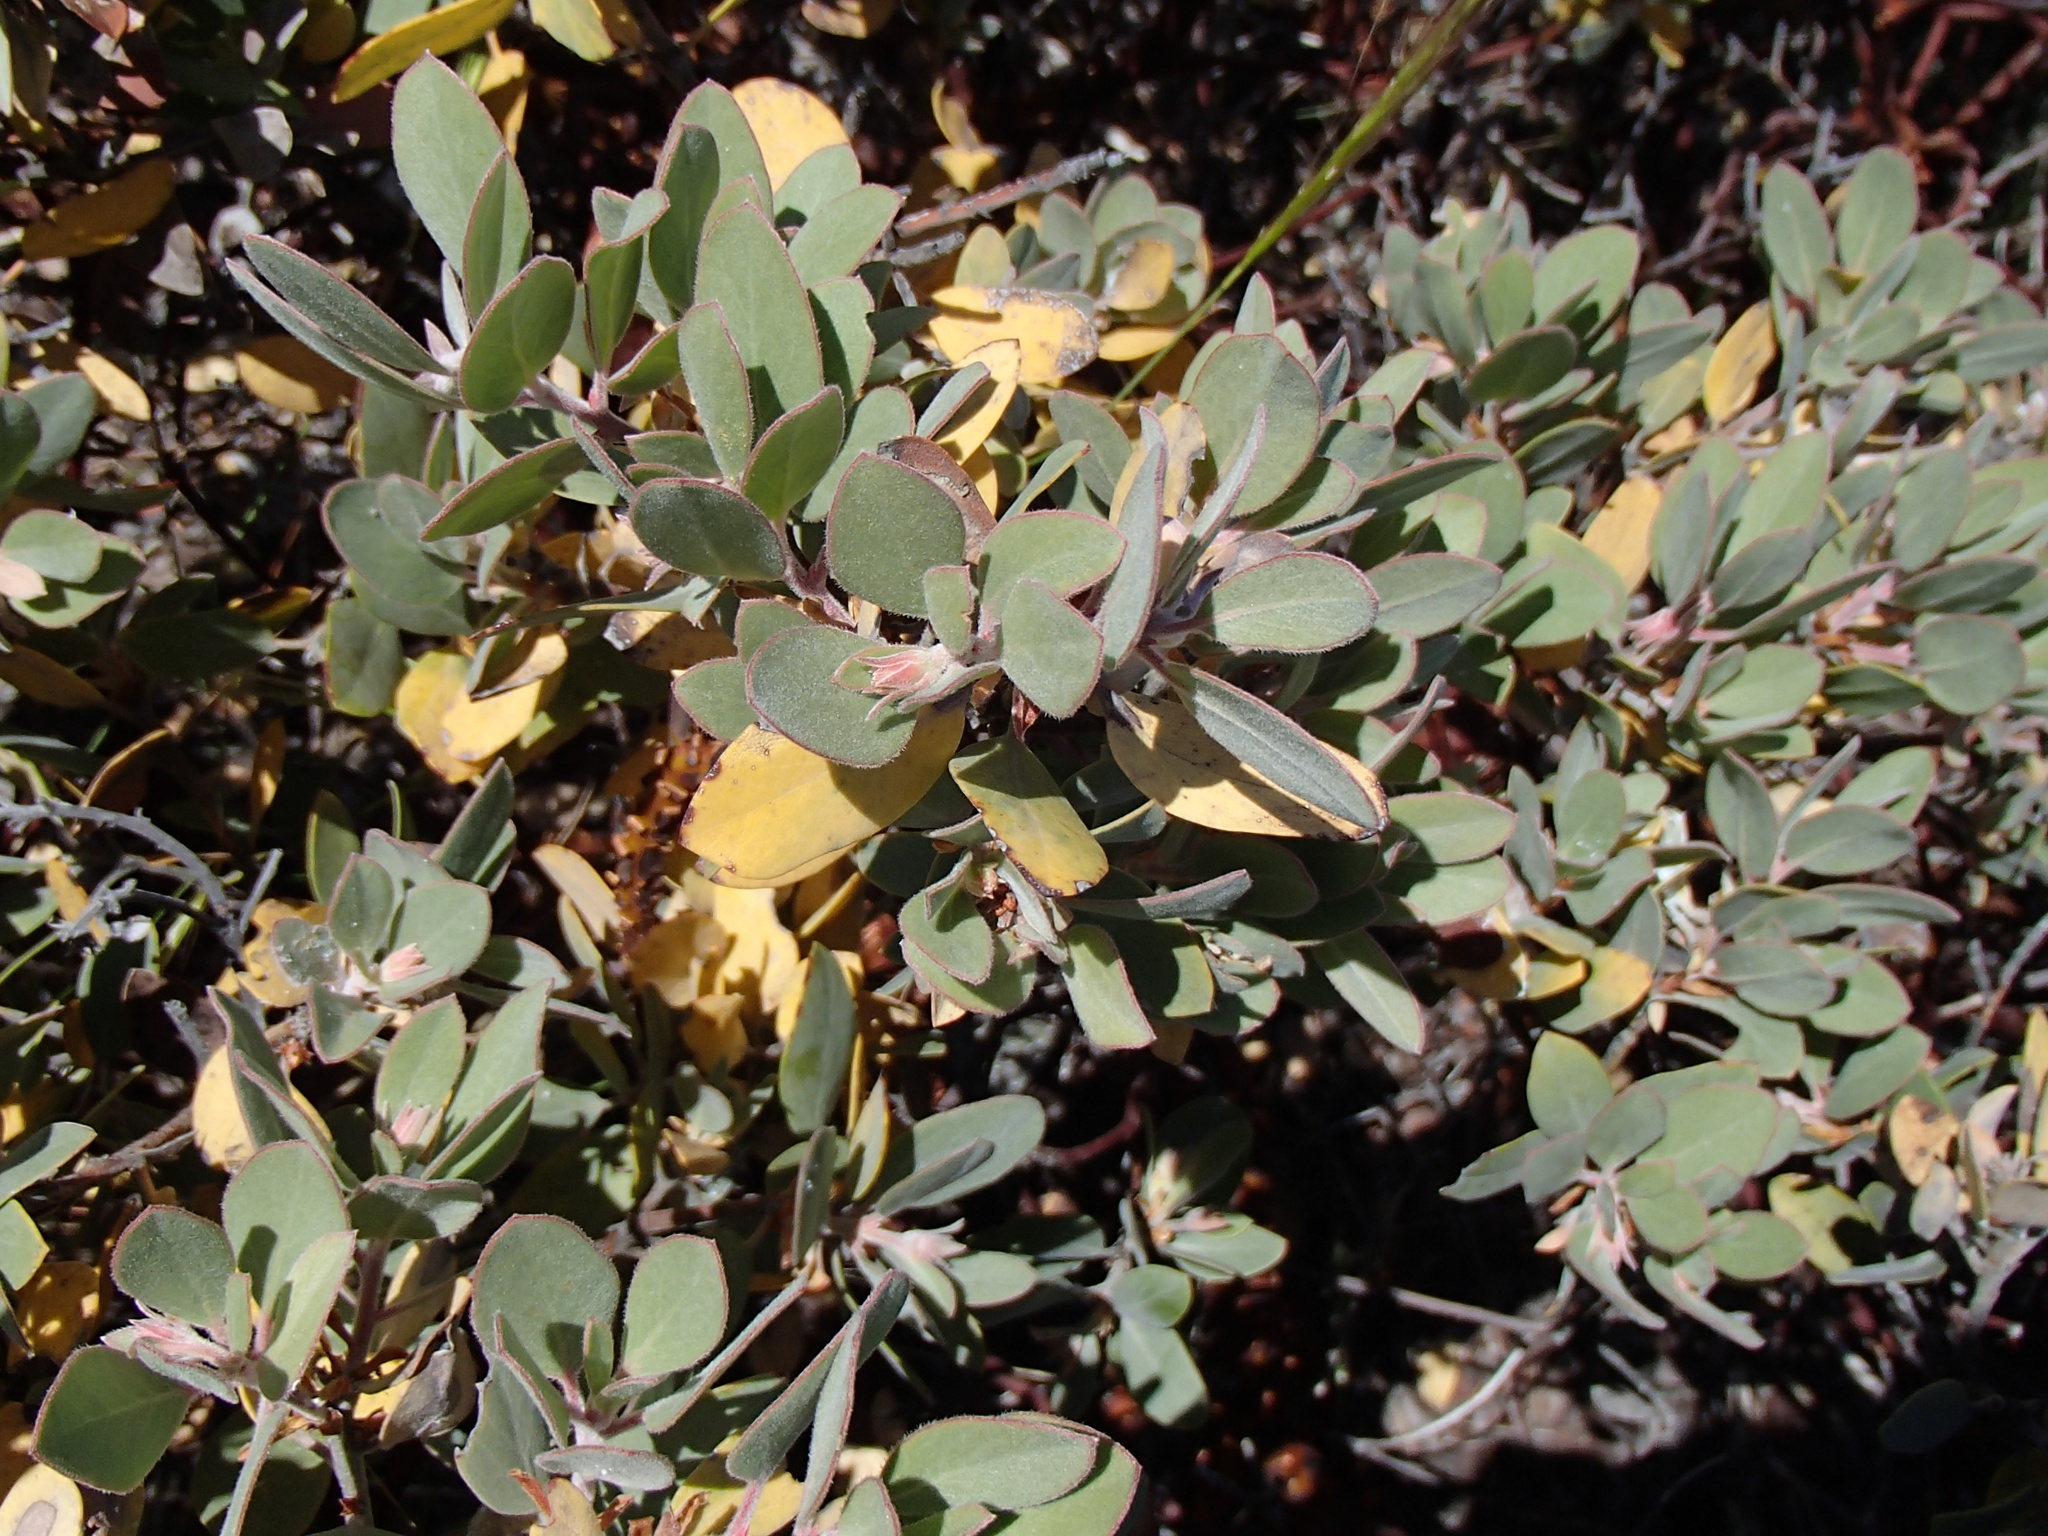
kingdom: Plantae
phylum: Tracheophyta
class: Magnoliopsida
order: Ericales
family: Ericaceae
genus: Arctostaphylos
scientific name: Arctostaphylos canescens
